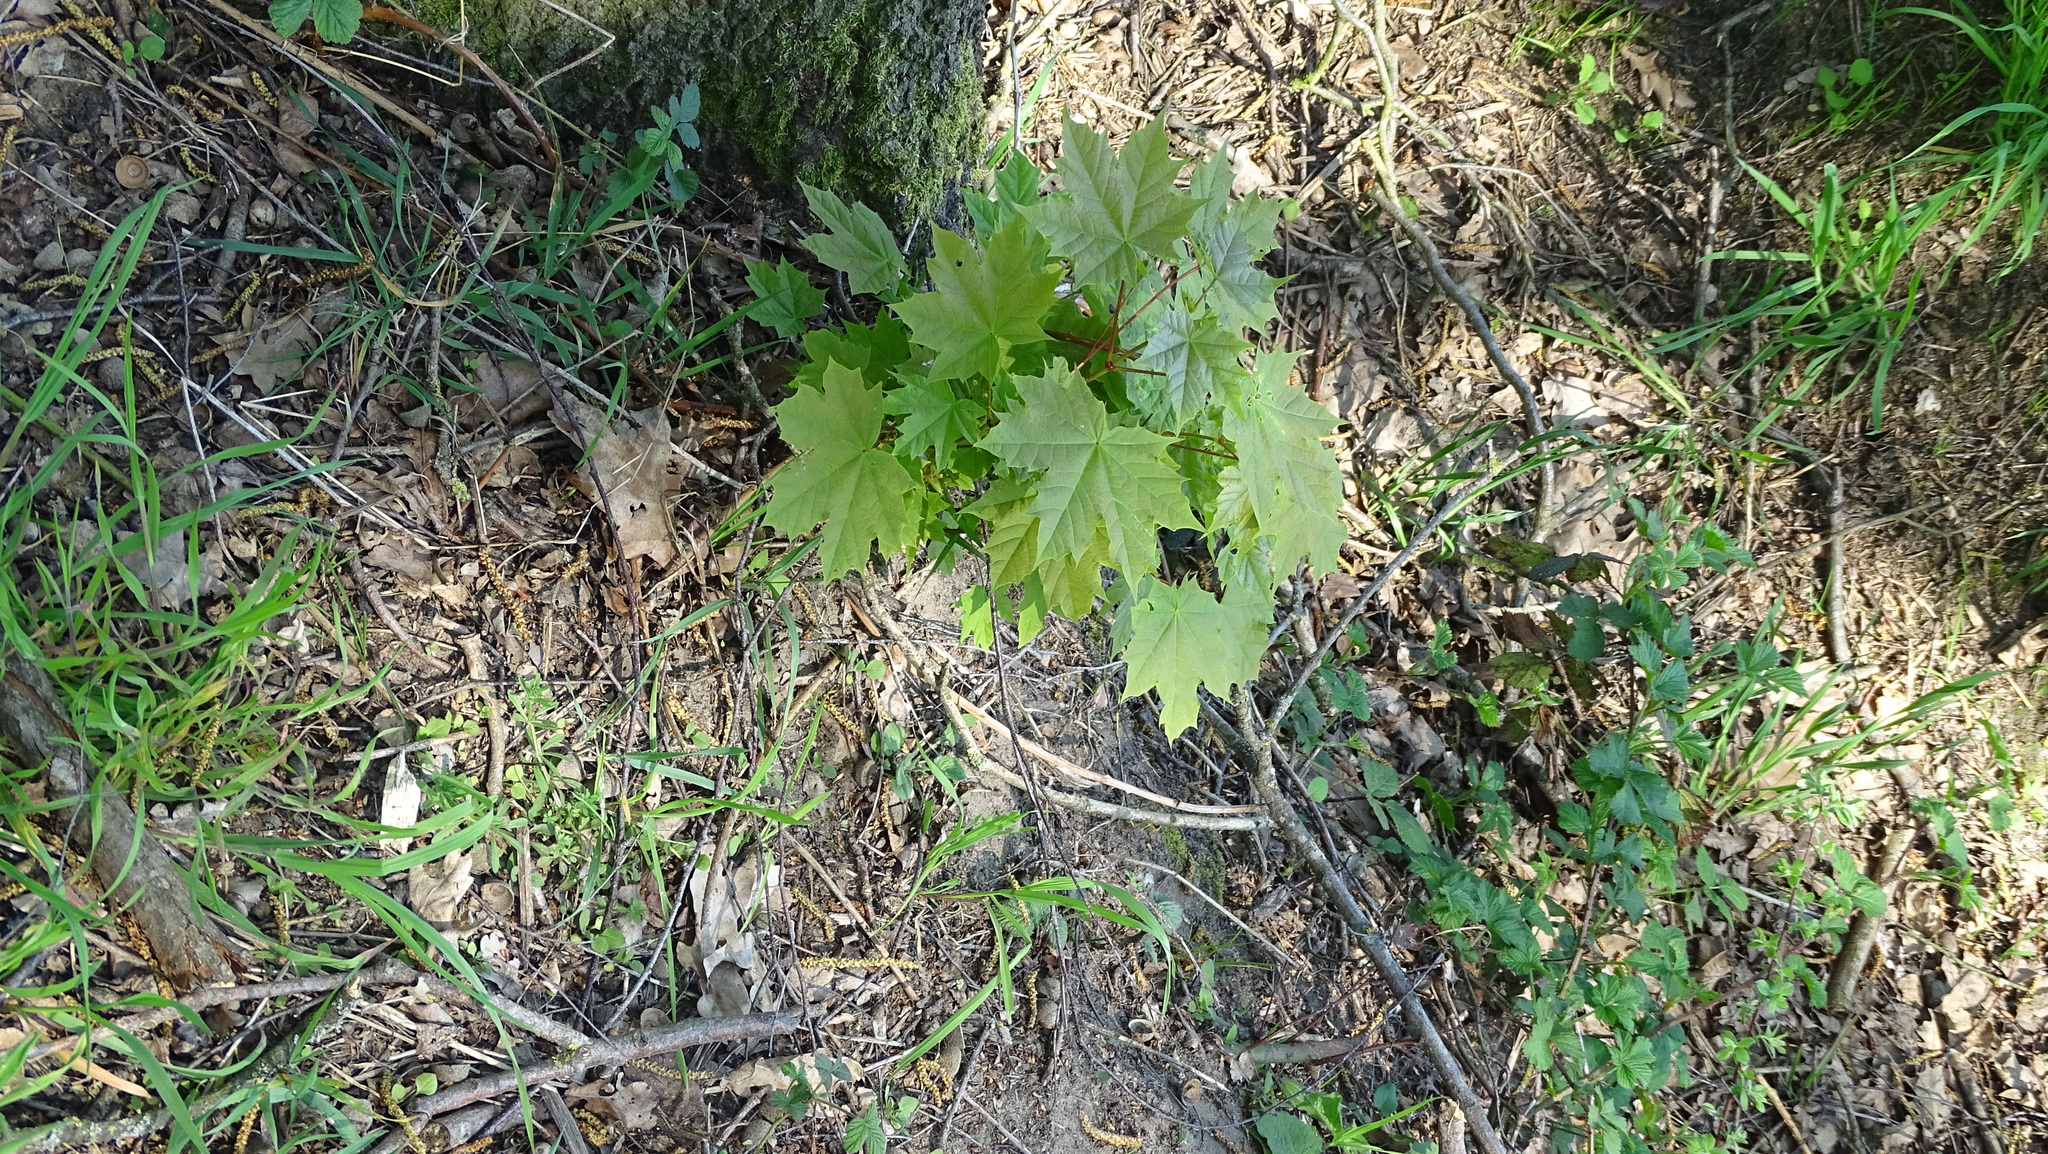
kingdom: Plantae
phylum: Tracheophyta
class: Magnoliopsida
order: Sapindales
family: Sapindaceae
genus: Acer
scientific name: Acer platanoides
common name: Norway maple
